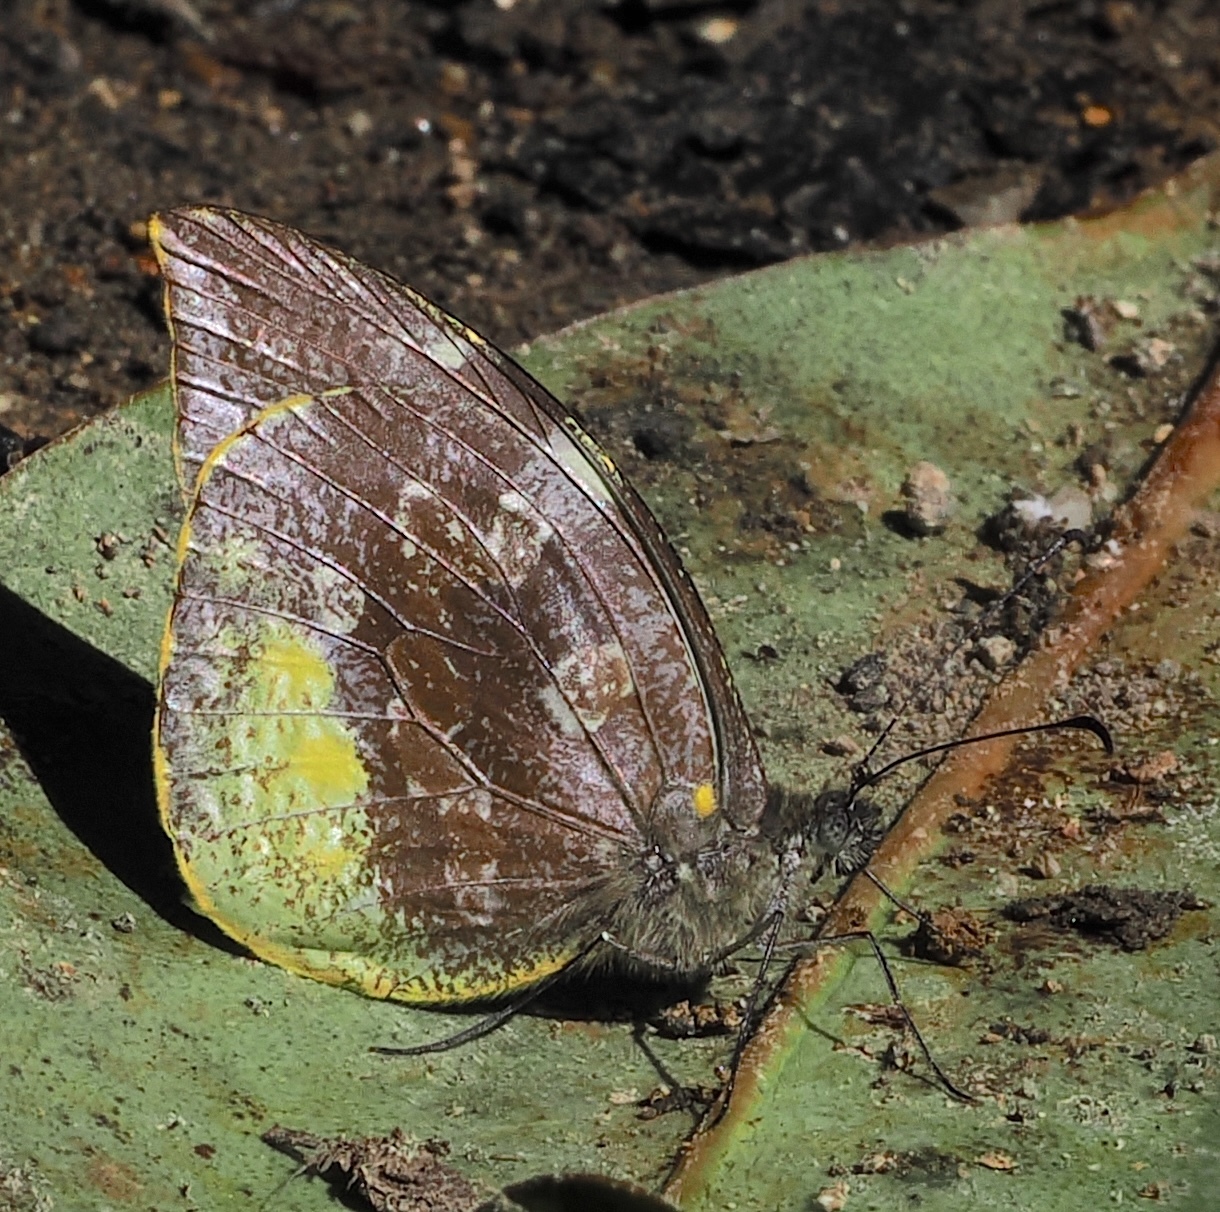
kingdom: Animalia
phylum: Arthropoda
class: Insecta
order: Lepidoptera
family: Pieridae
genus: Lieinix
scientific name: Lieinix nemesis
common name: Frosted mimic-white
